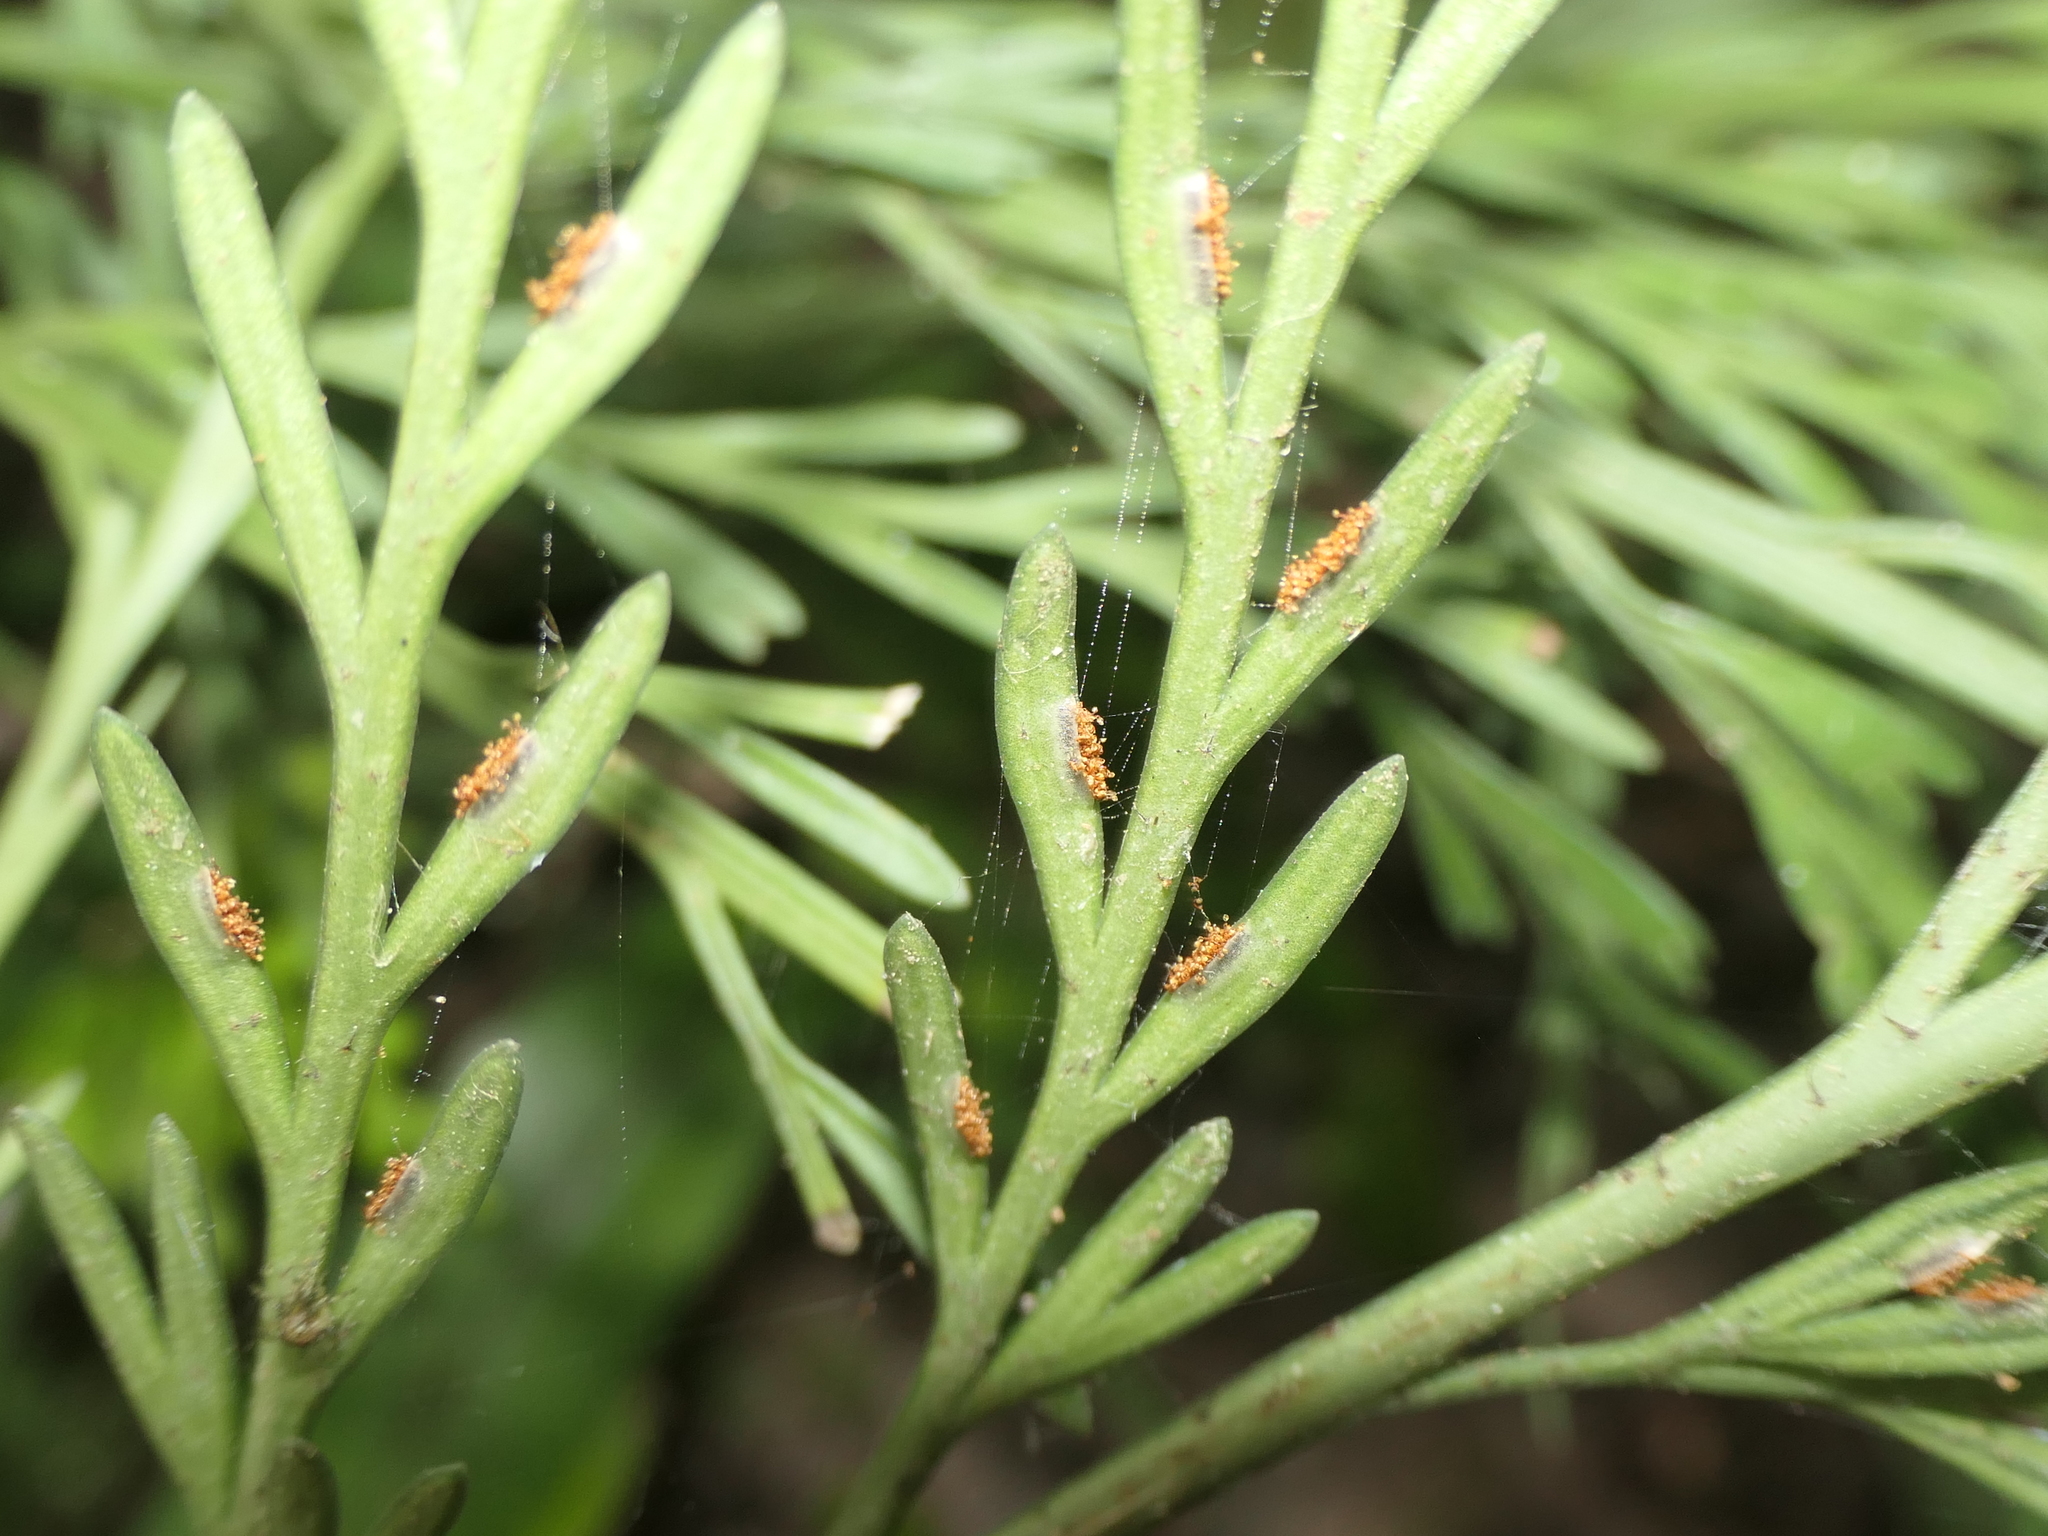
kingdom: Plantae
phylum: Tracheophyta
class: Polypodiopsida
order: Polypodiales
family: Aspleniaceae
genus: Asplenium
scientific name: Asplenium flaccidum
